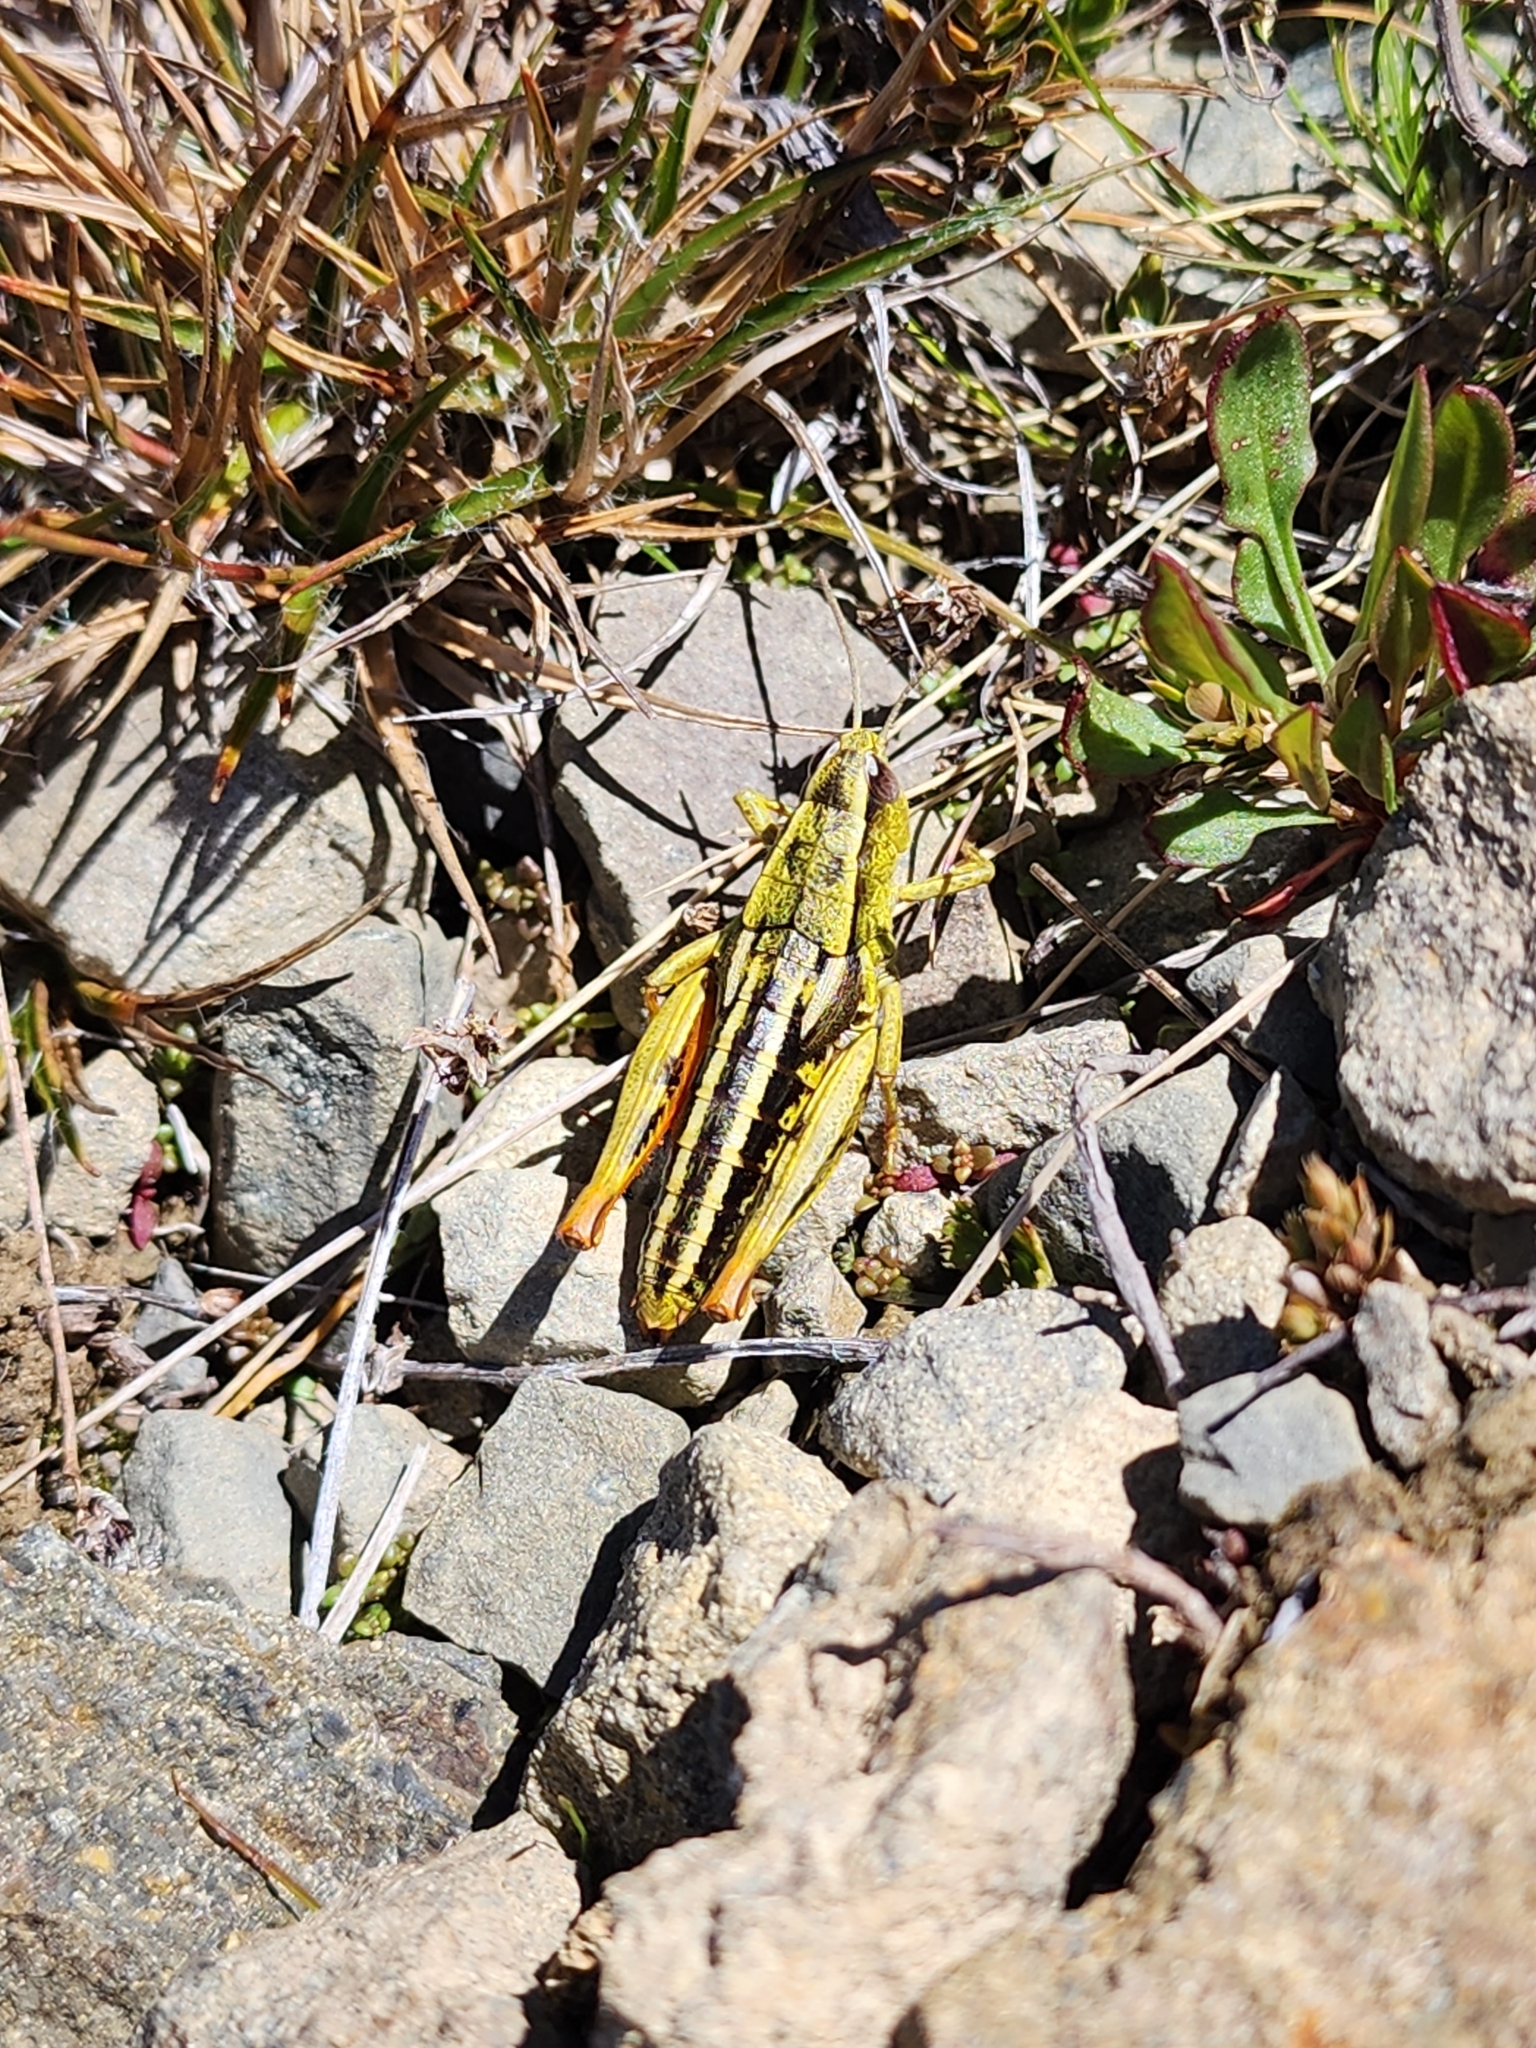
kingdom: Animalia
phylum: Arthropoda
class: Insecta
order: Orthoptera
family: Acrididae
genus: Sigaus
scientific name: Sigaus
